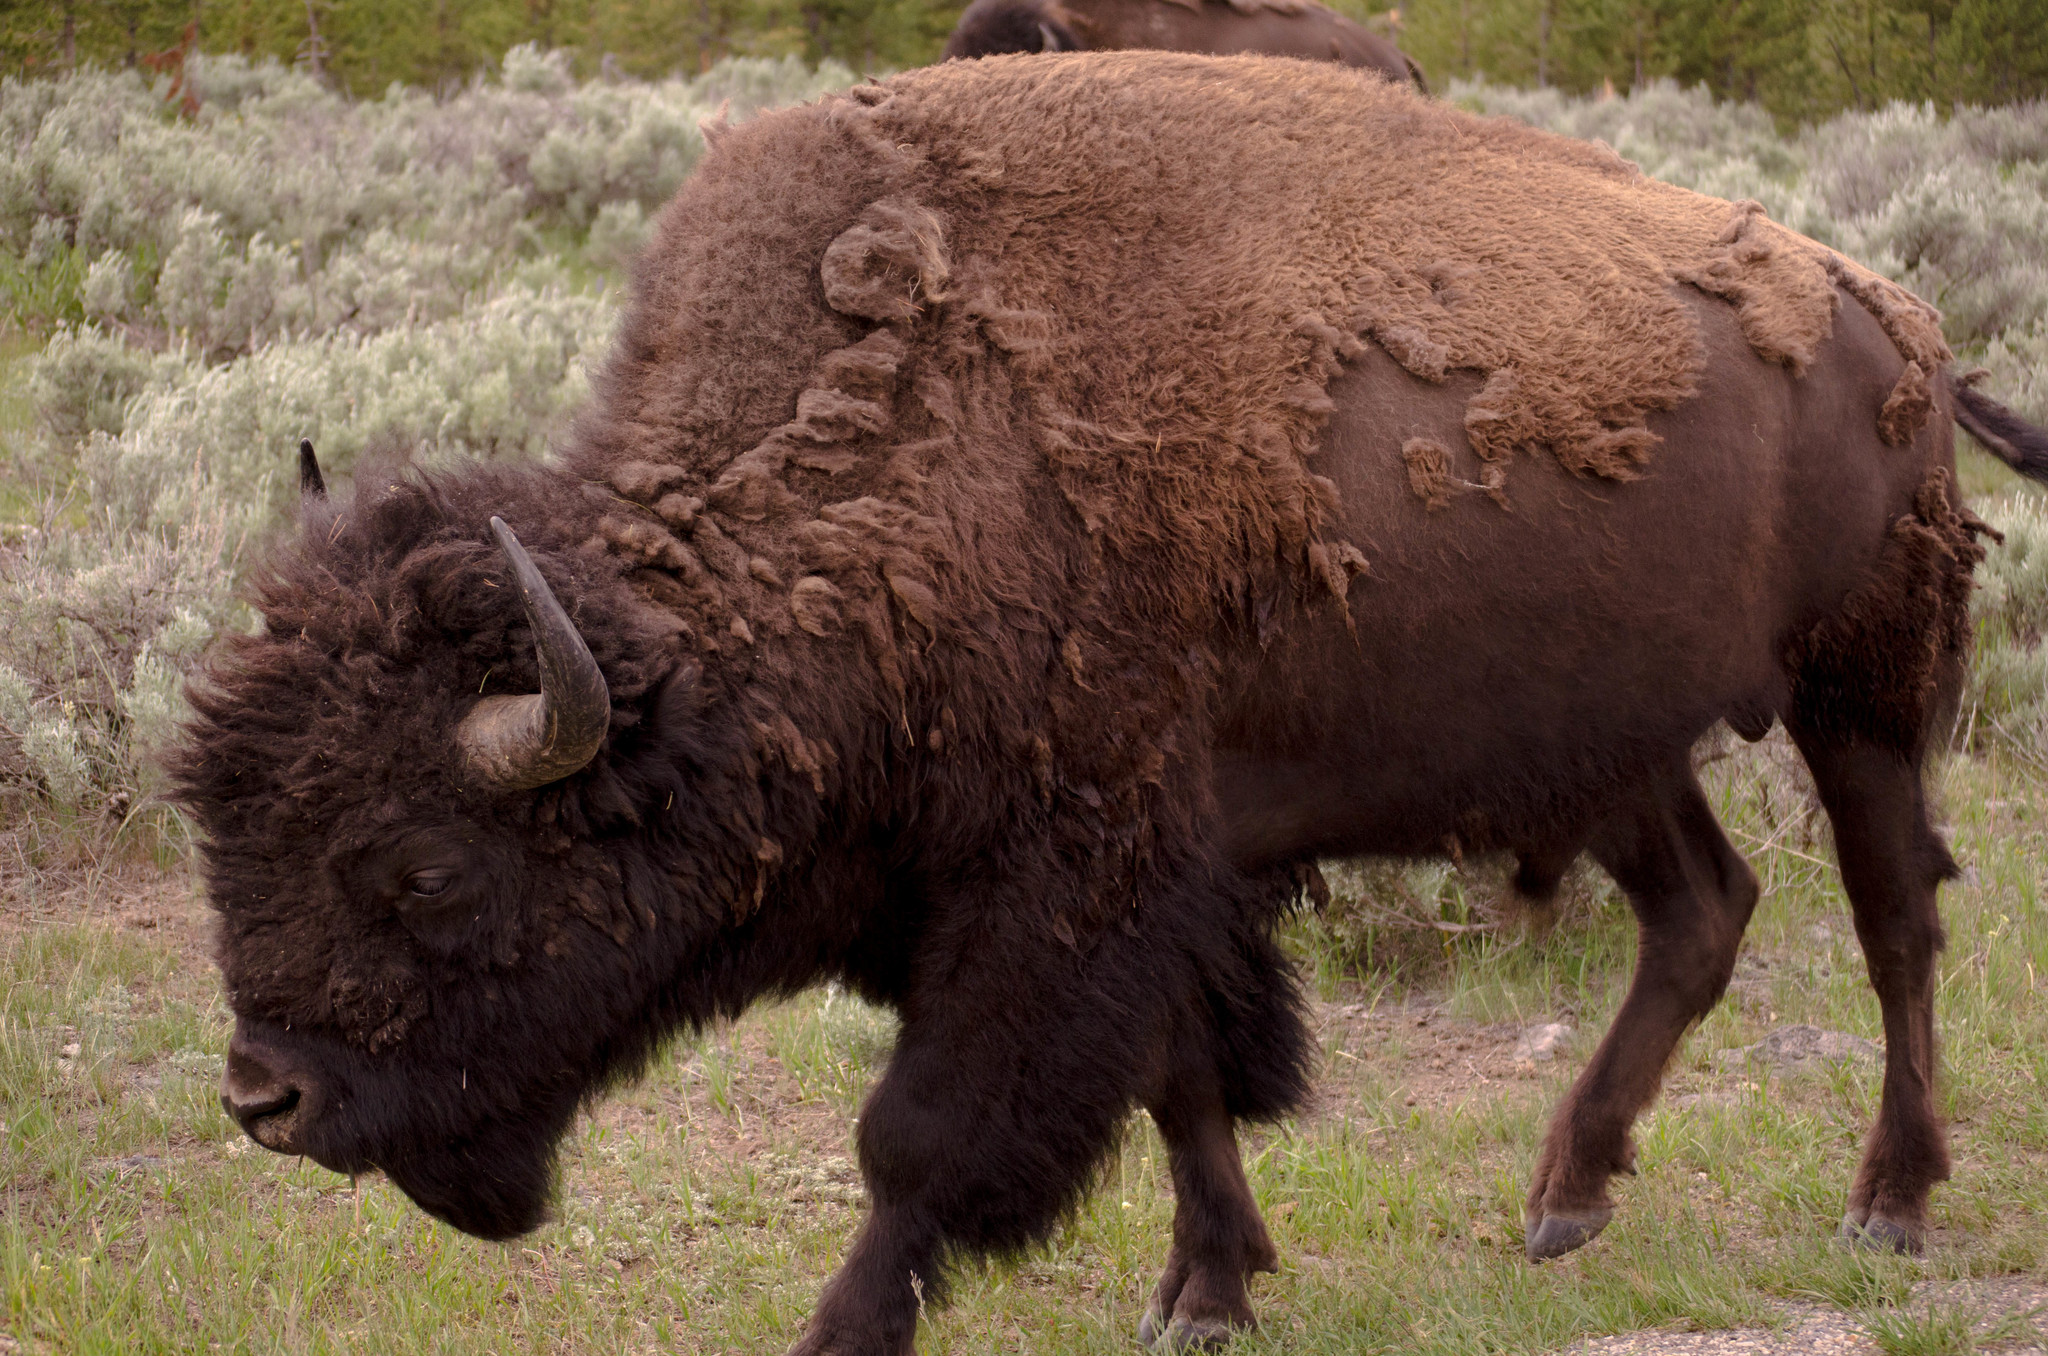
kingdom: Animalia
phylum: Chordata
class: Mammalia
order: Artiodactyla
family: Bovidae
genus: Bison
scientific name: Bison bison
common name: American bison
